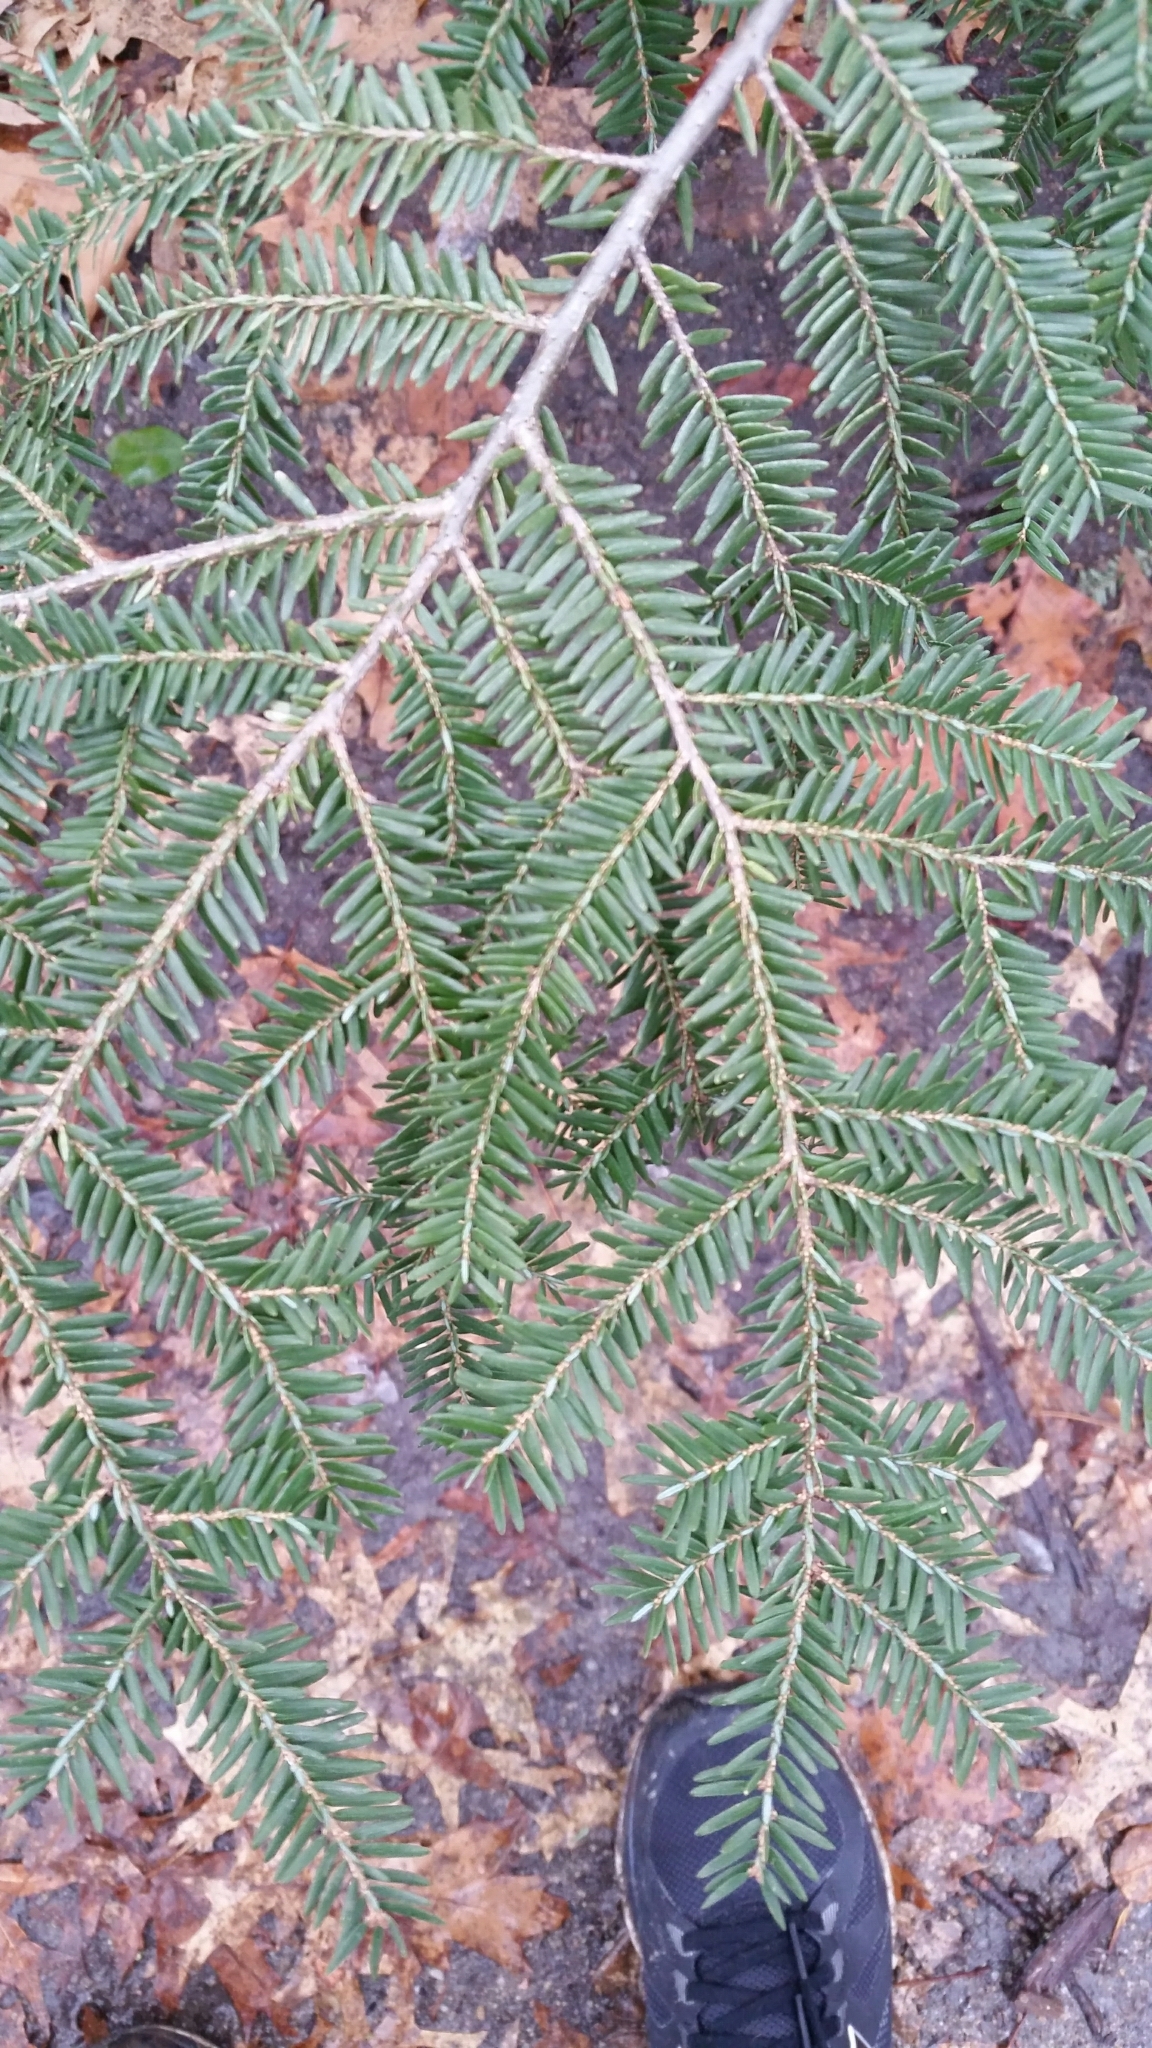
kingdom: Plantae
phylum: Tracheophyta
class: Pinopsida
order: Pinales
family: Pinaceae
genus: Tsuga
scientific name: Tsuga canadensis
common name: Eastern hemlock
